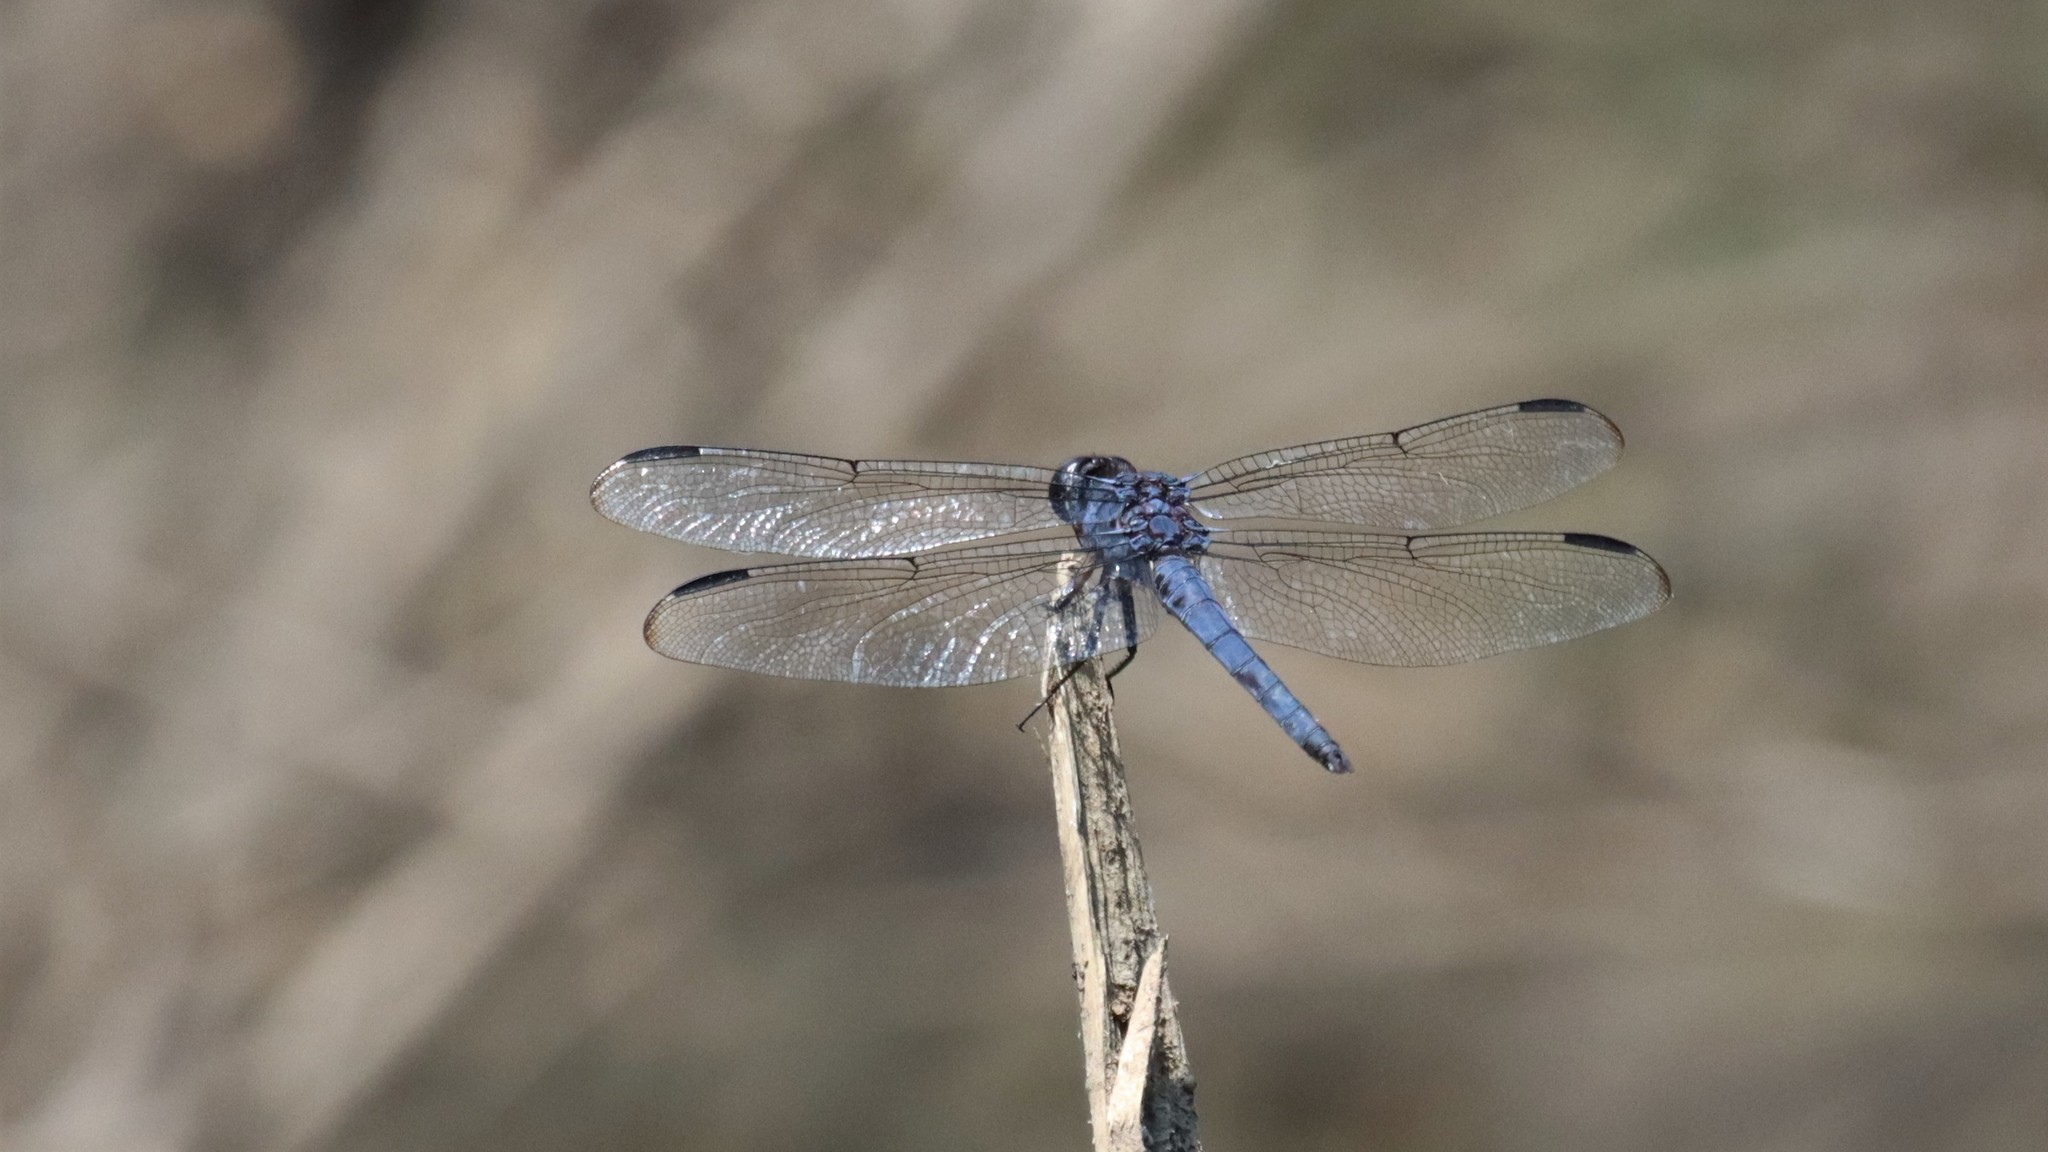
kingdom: Animalia
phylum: Arthropoda
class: Insecta
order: Odonata
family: Libellulidae
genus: Libellula
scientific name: Libellula incesta
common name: Slaty skimmer
